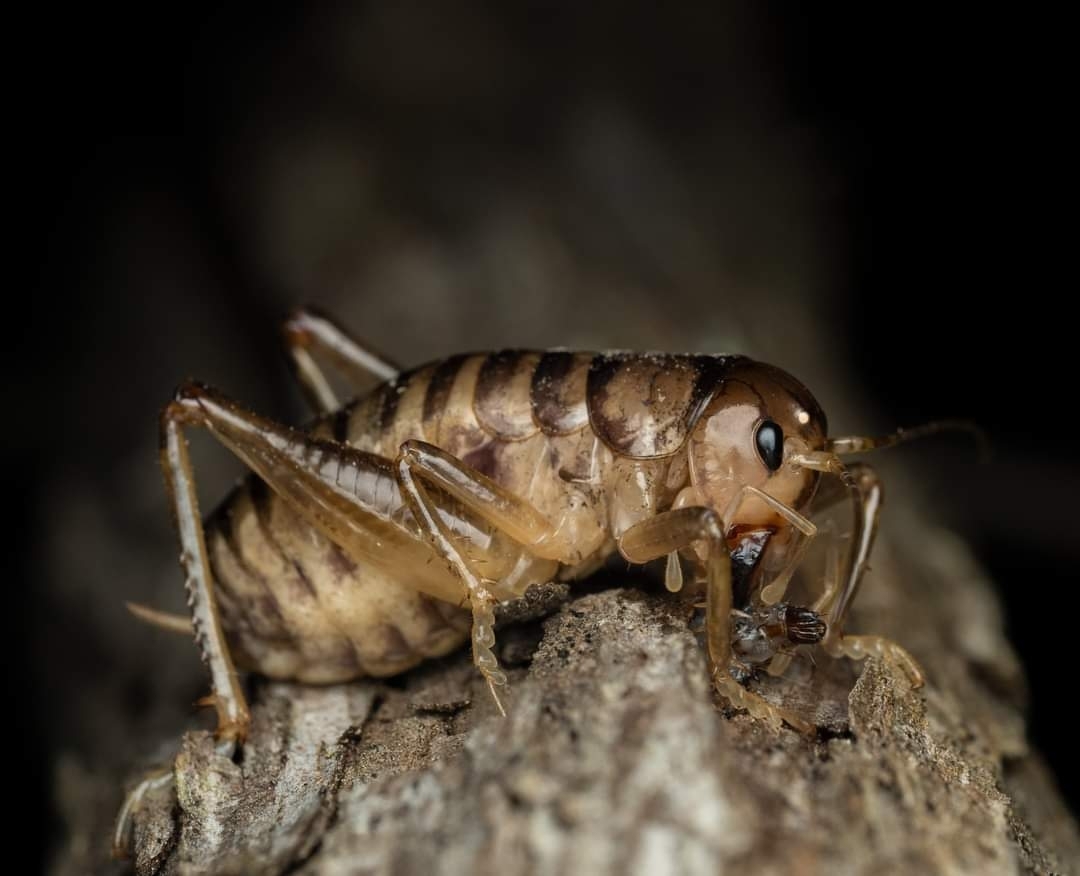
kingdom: Animalia
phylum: Arthropoda
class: Insecta
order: Orthoptera
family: Anostostomatidae
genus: Hemiandrus
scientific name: Hemiandrus celaeno
